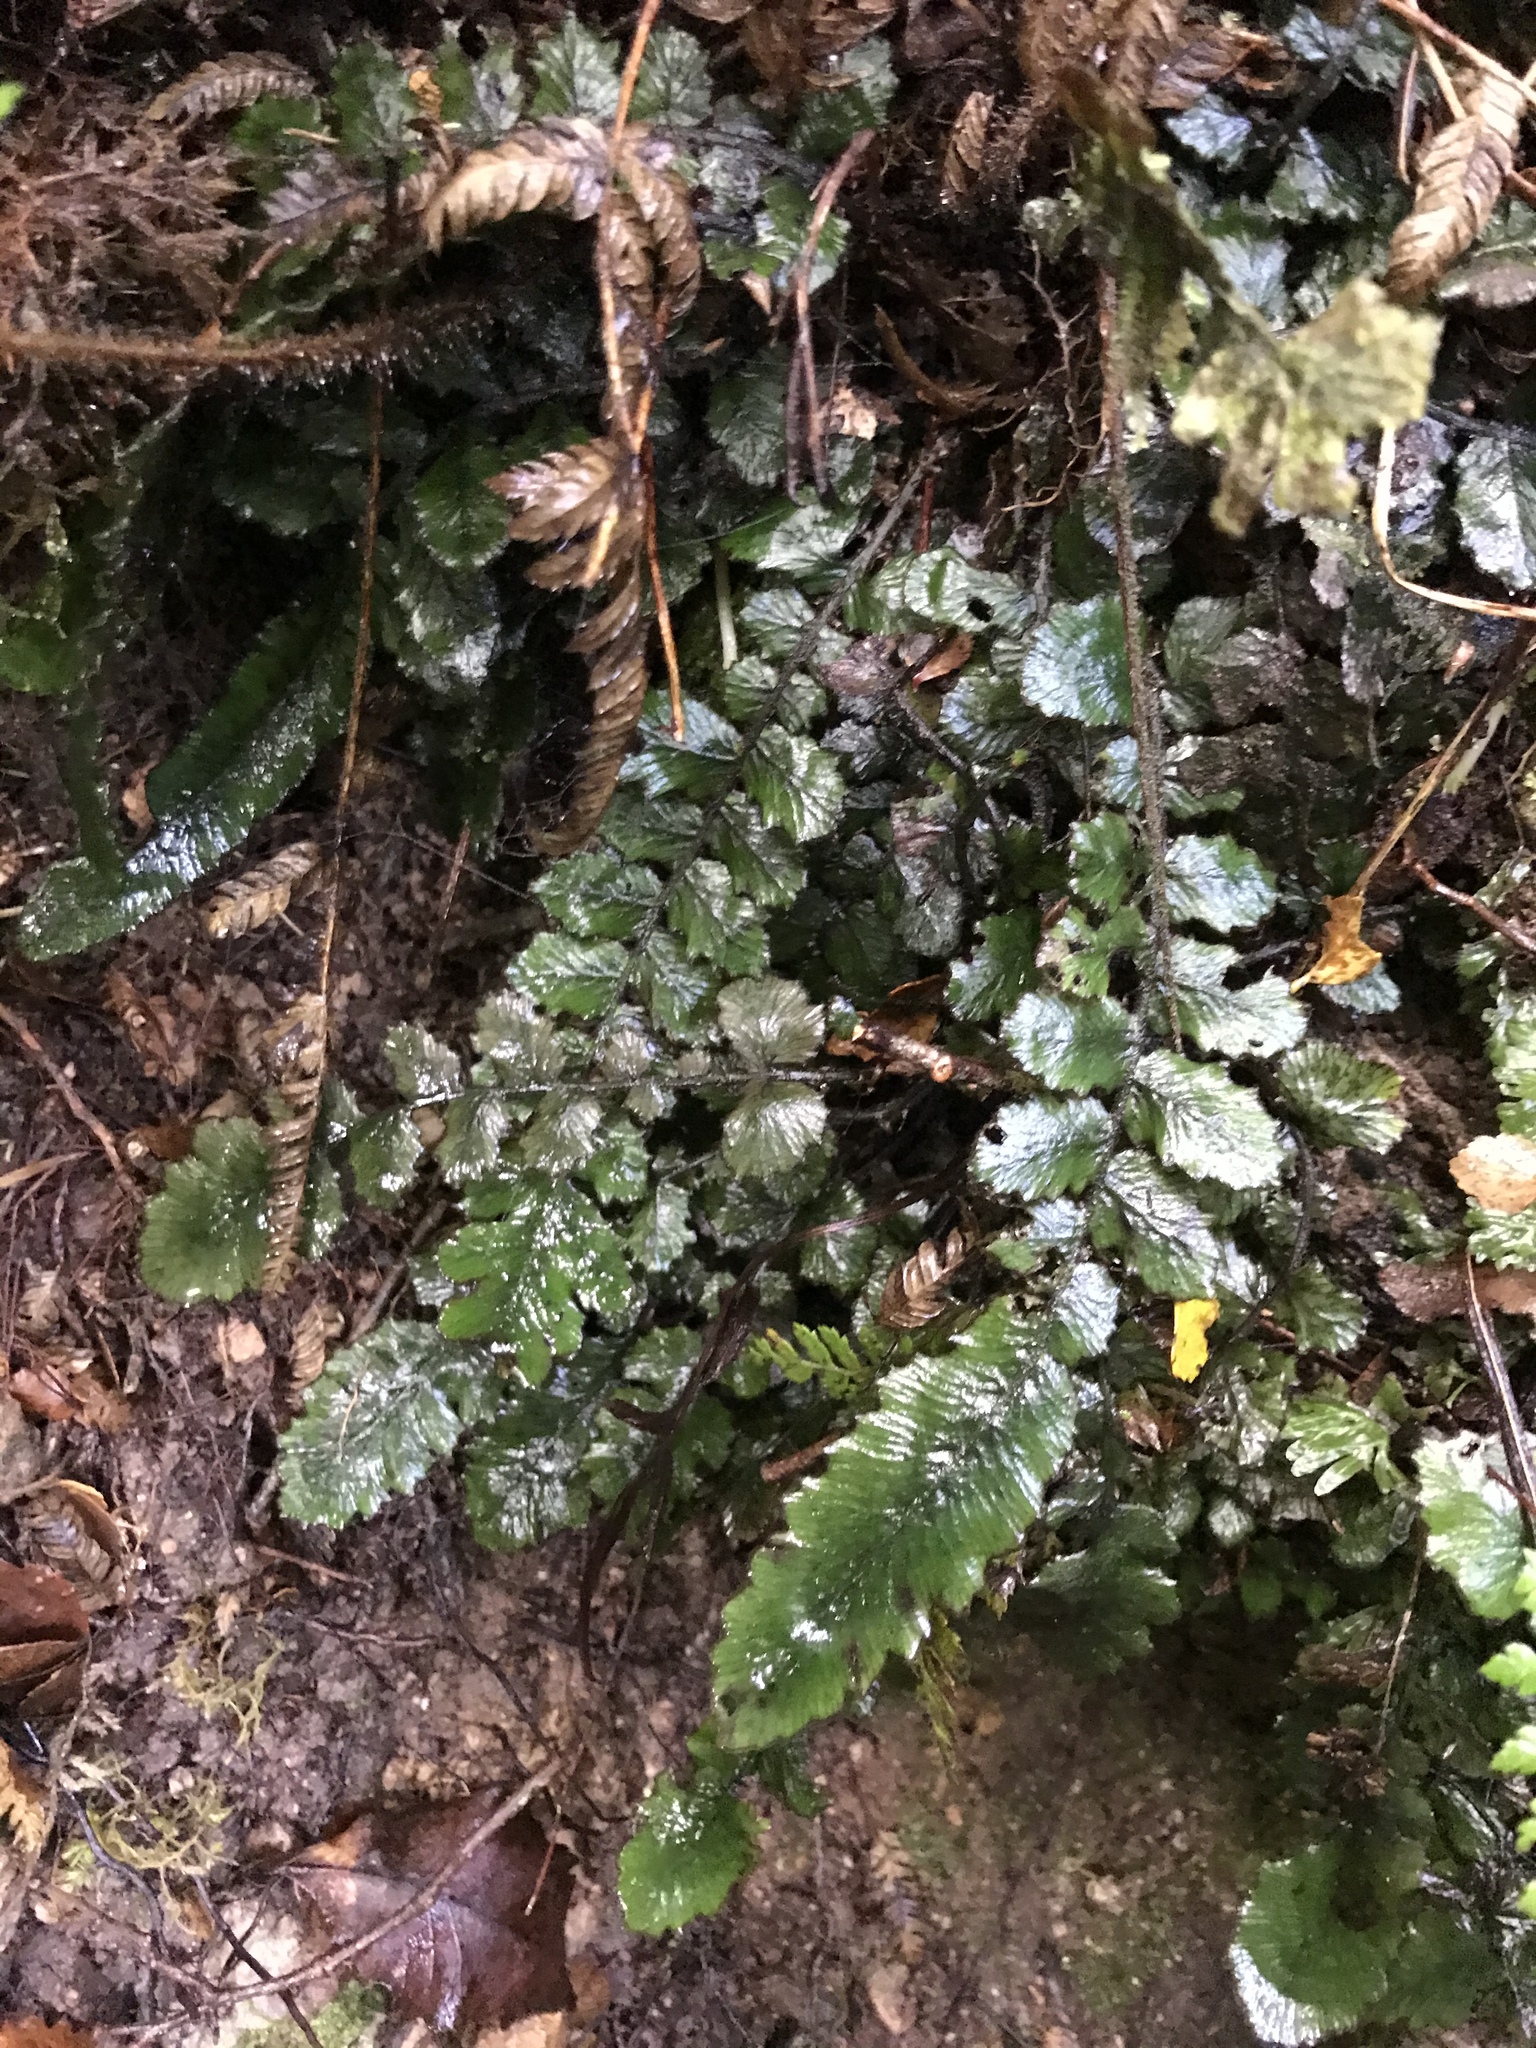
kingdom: Plantae
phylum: Tracheophyta
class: Polypodiopsida
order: Polypodiales
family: Blechnaceae
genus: Cranfillia
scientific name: Cranfillia nigra
